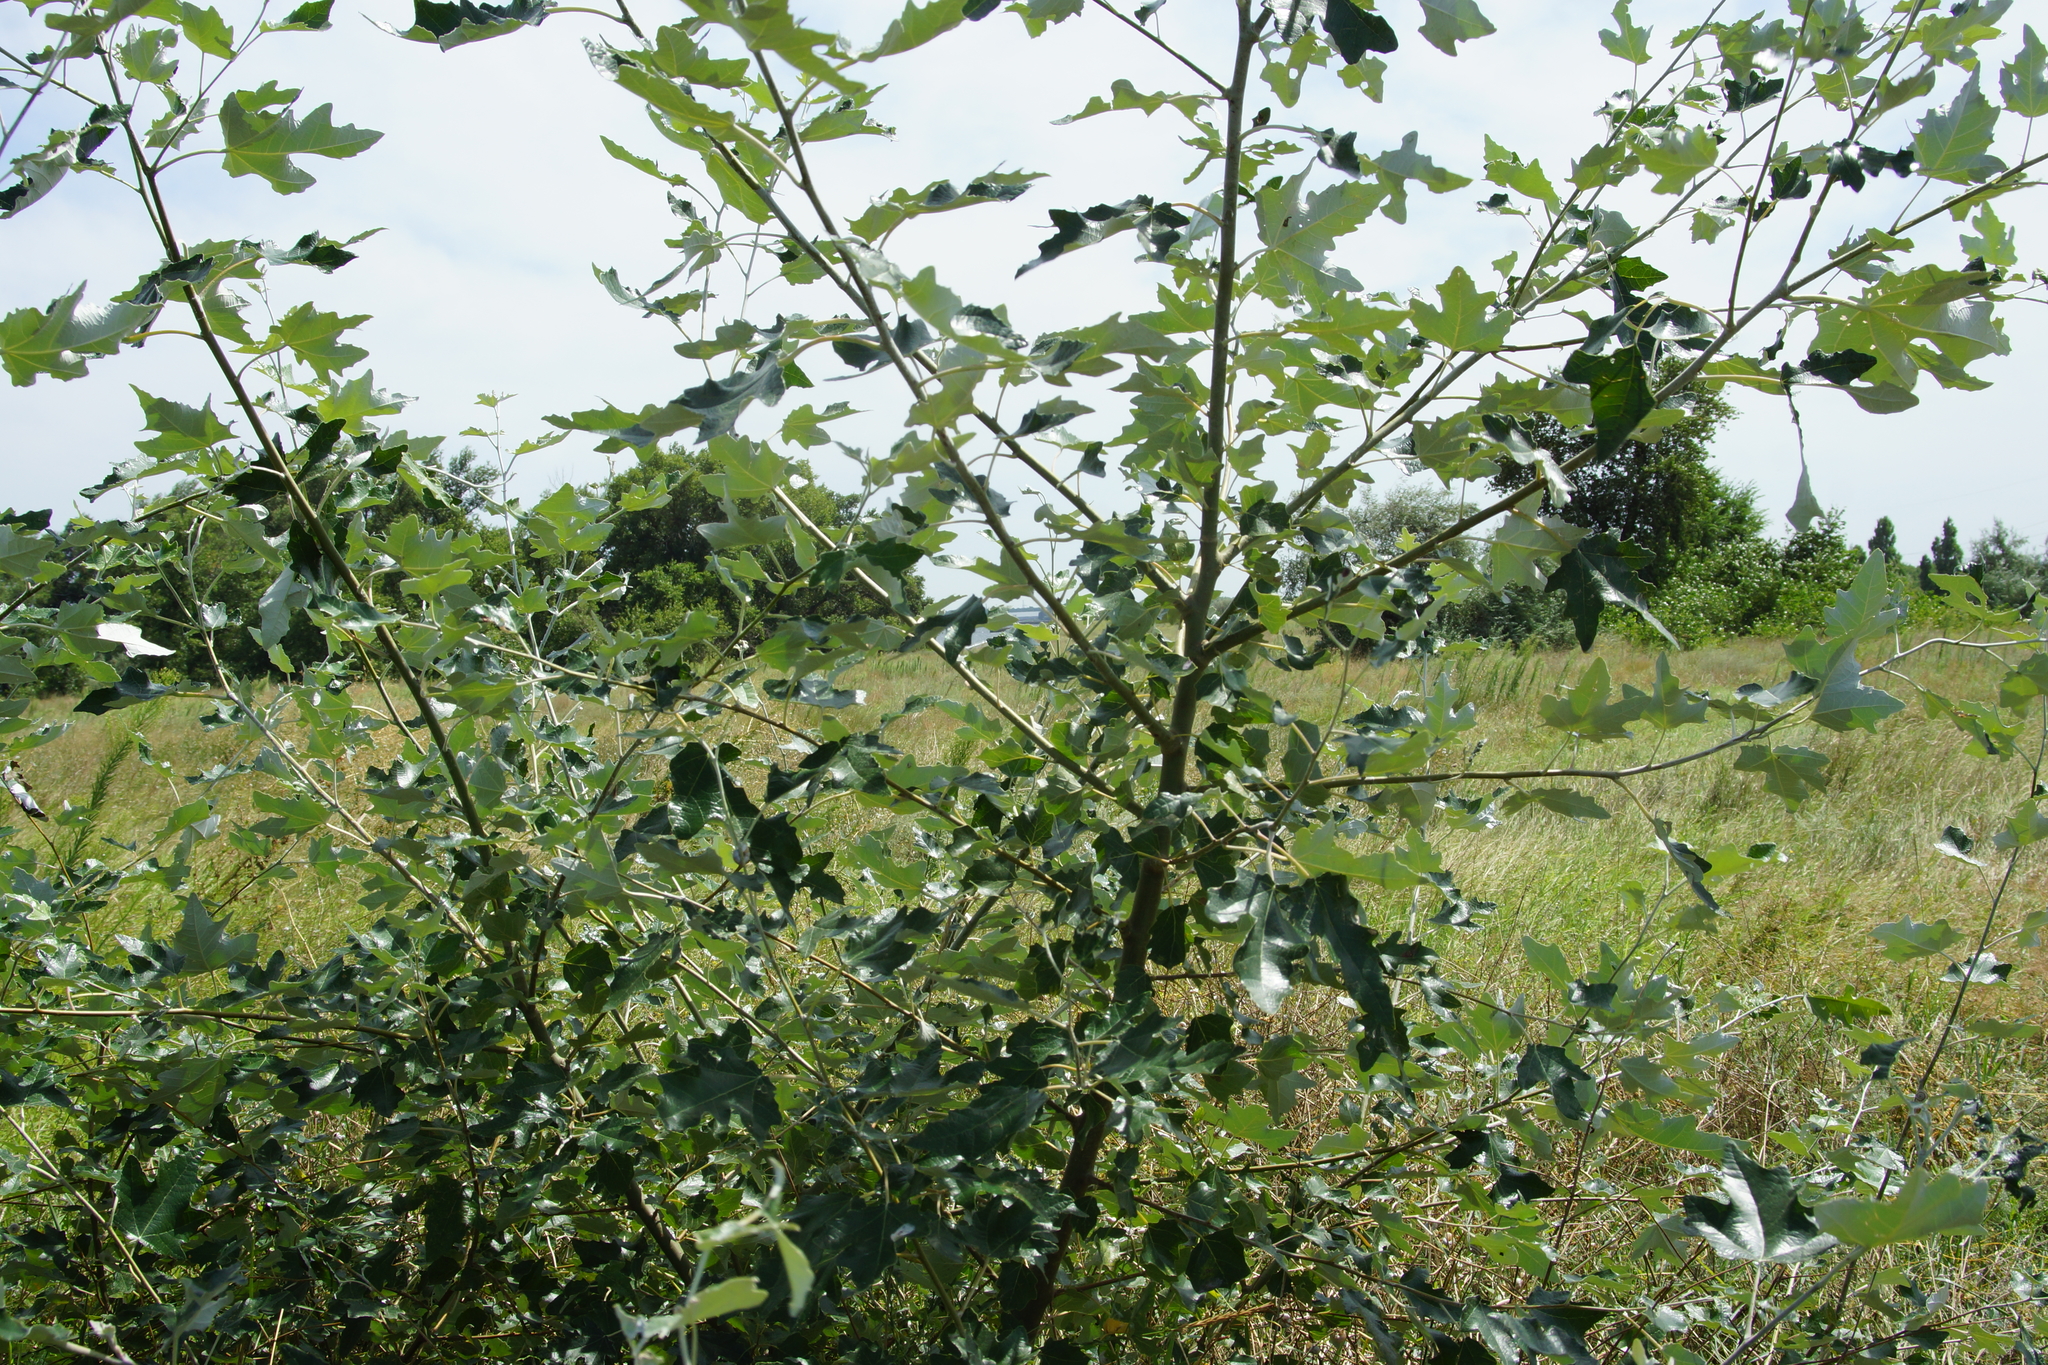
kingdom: Plantae
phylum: Tracheophyta
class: Magnoliopsida
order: Malpighiales
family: Salicaceae
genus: Populus
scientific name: Populus canescens
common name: Gray poplar
